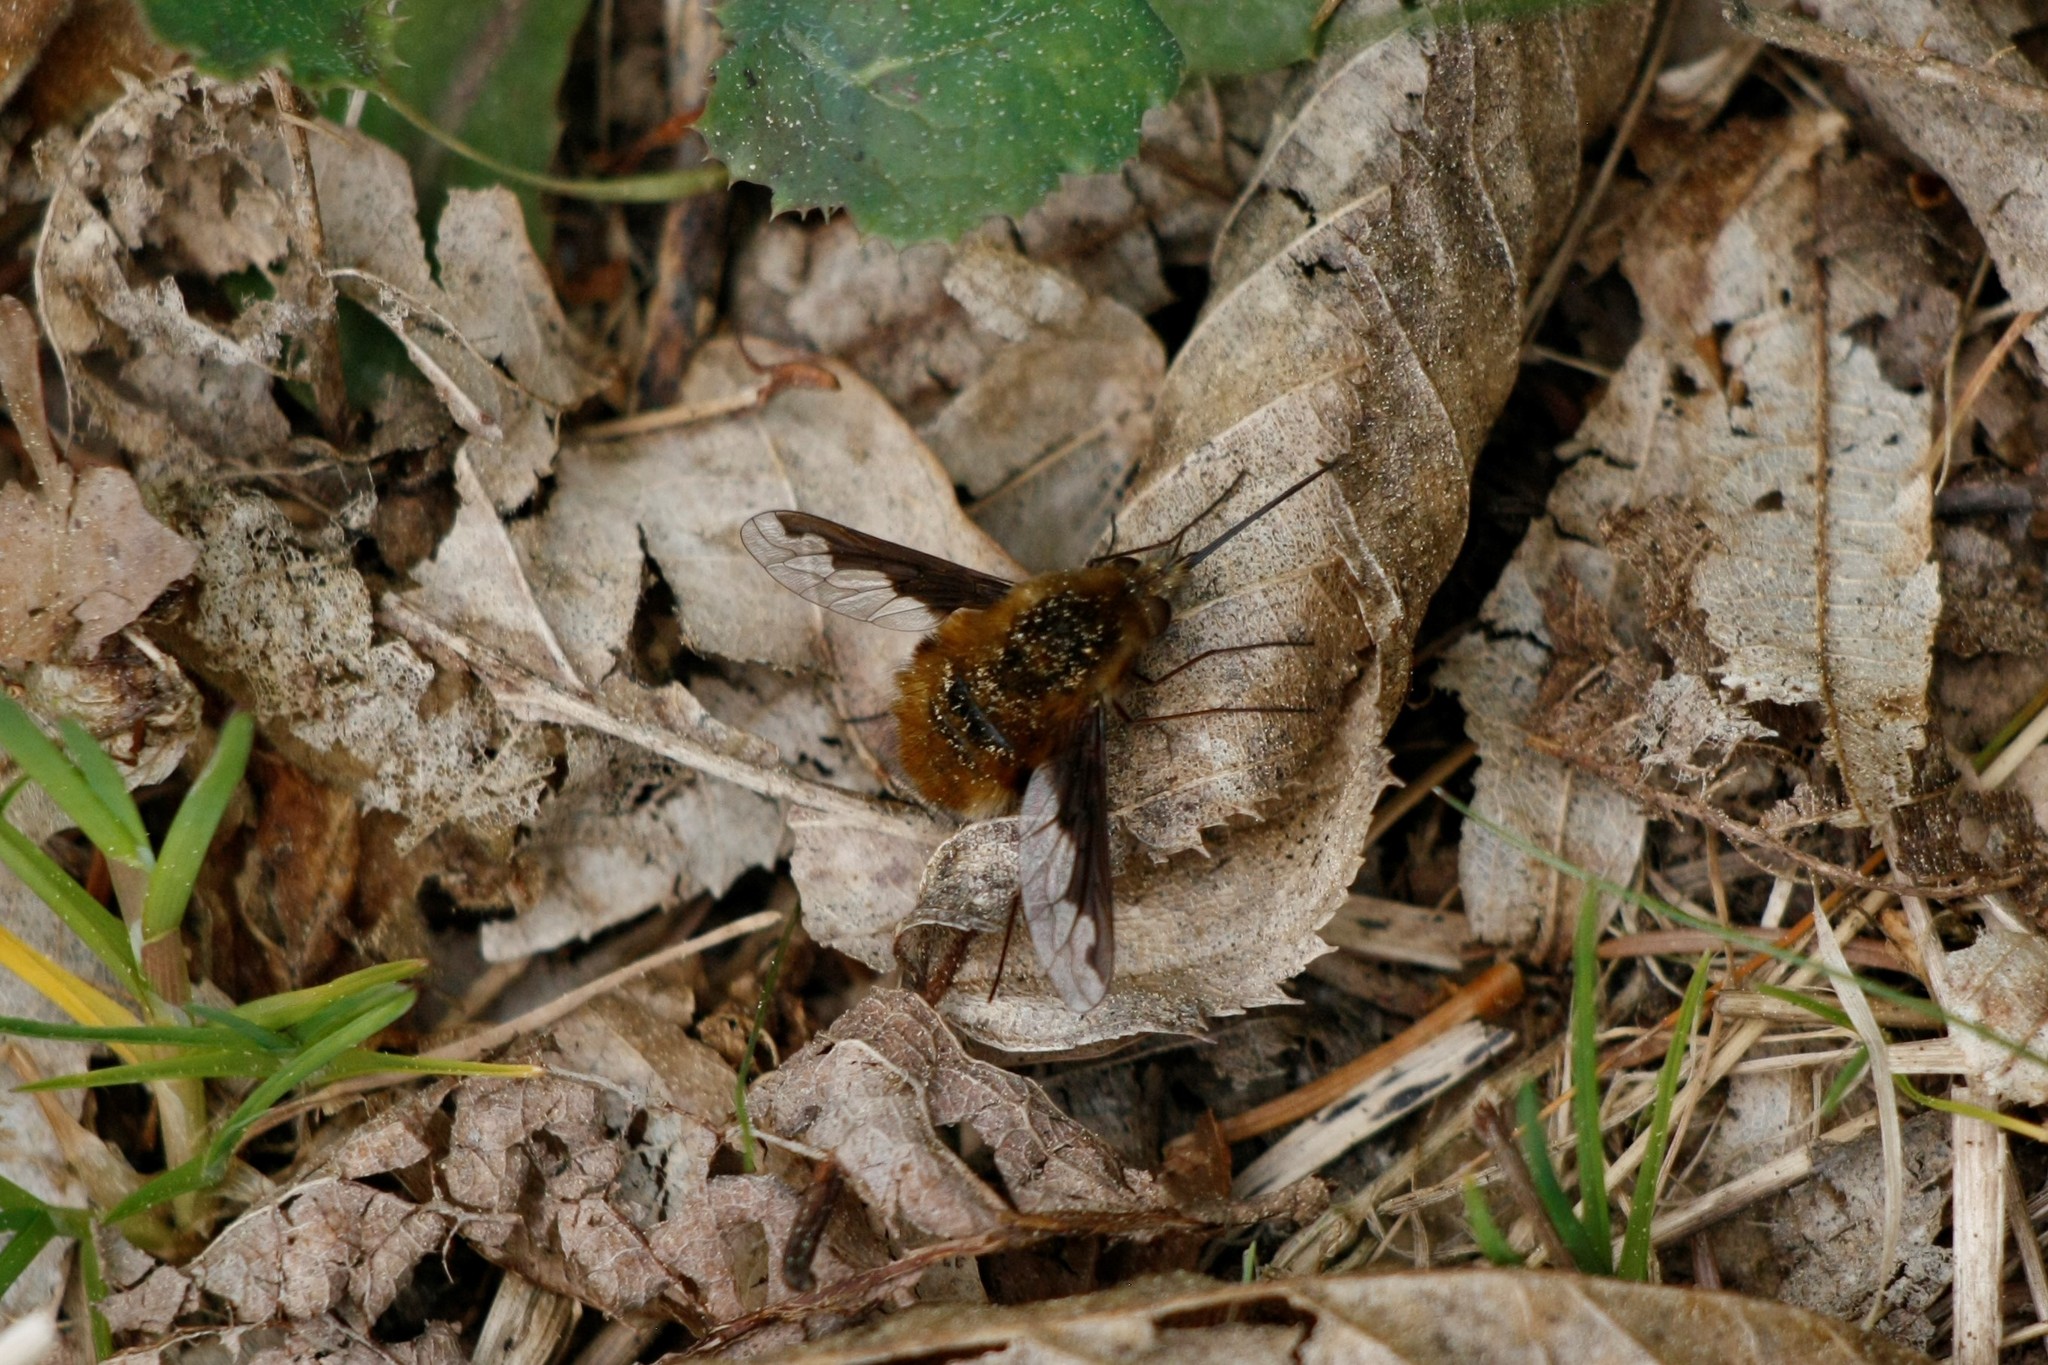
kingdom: Animalia
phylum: Arthropoda
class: Insecta
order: Diptera
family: Bombyliidae
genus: Bombylius
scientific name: Bombylius major
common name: Bee fly
